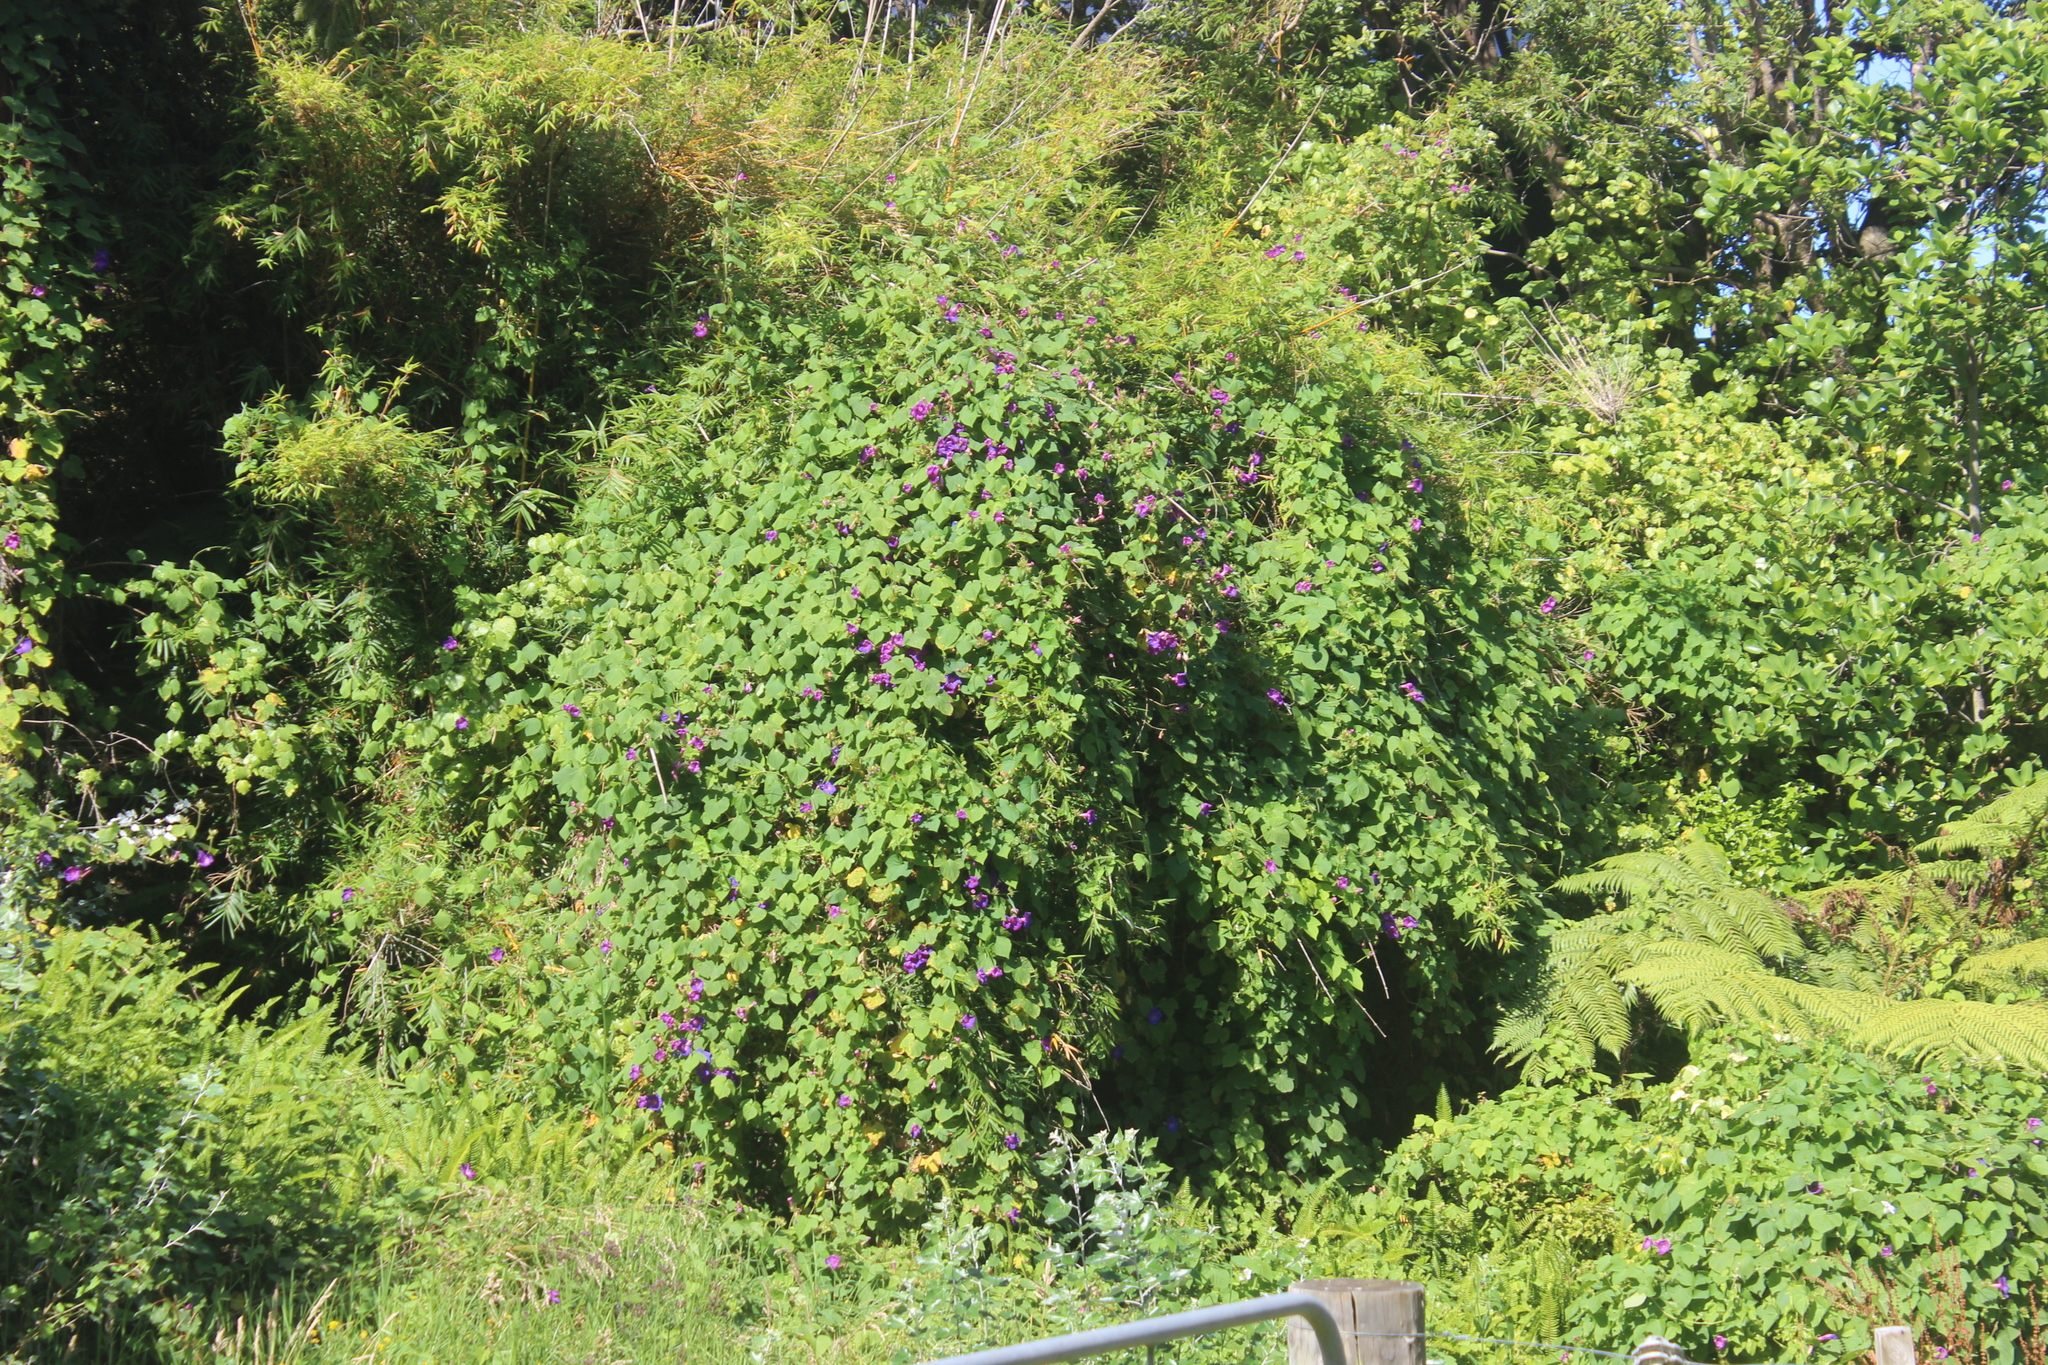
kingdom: Plantae
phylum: Tracheophyta
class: Magnoliopsida
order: Solanales
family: Convolvulaceae
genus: Ipomoea
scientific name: Ipomoea indica
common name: Blue dawnflower
